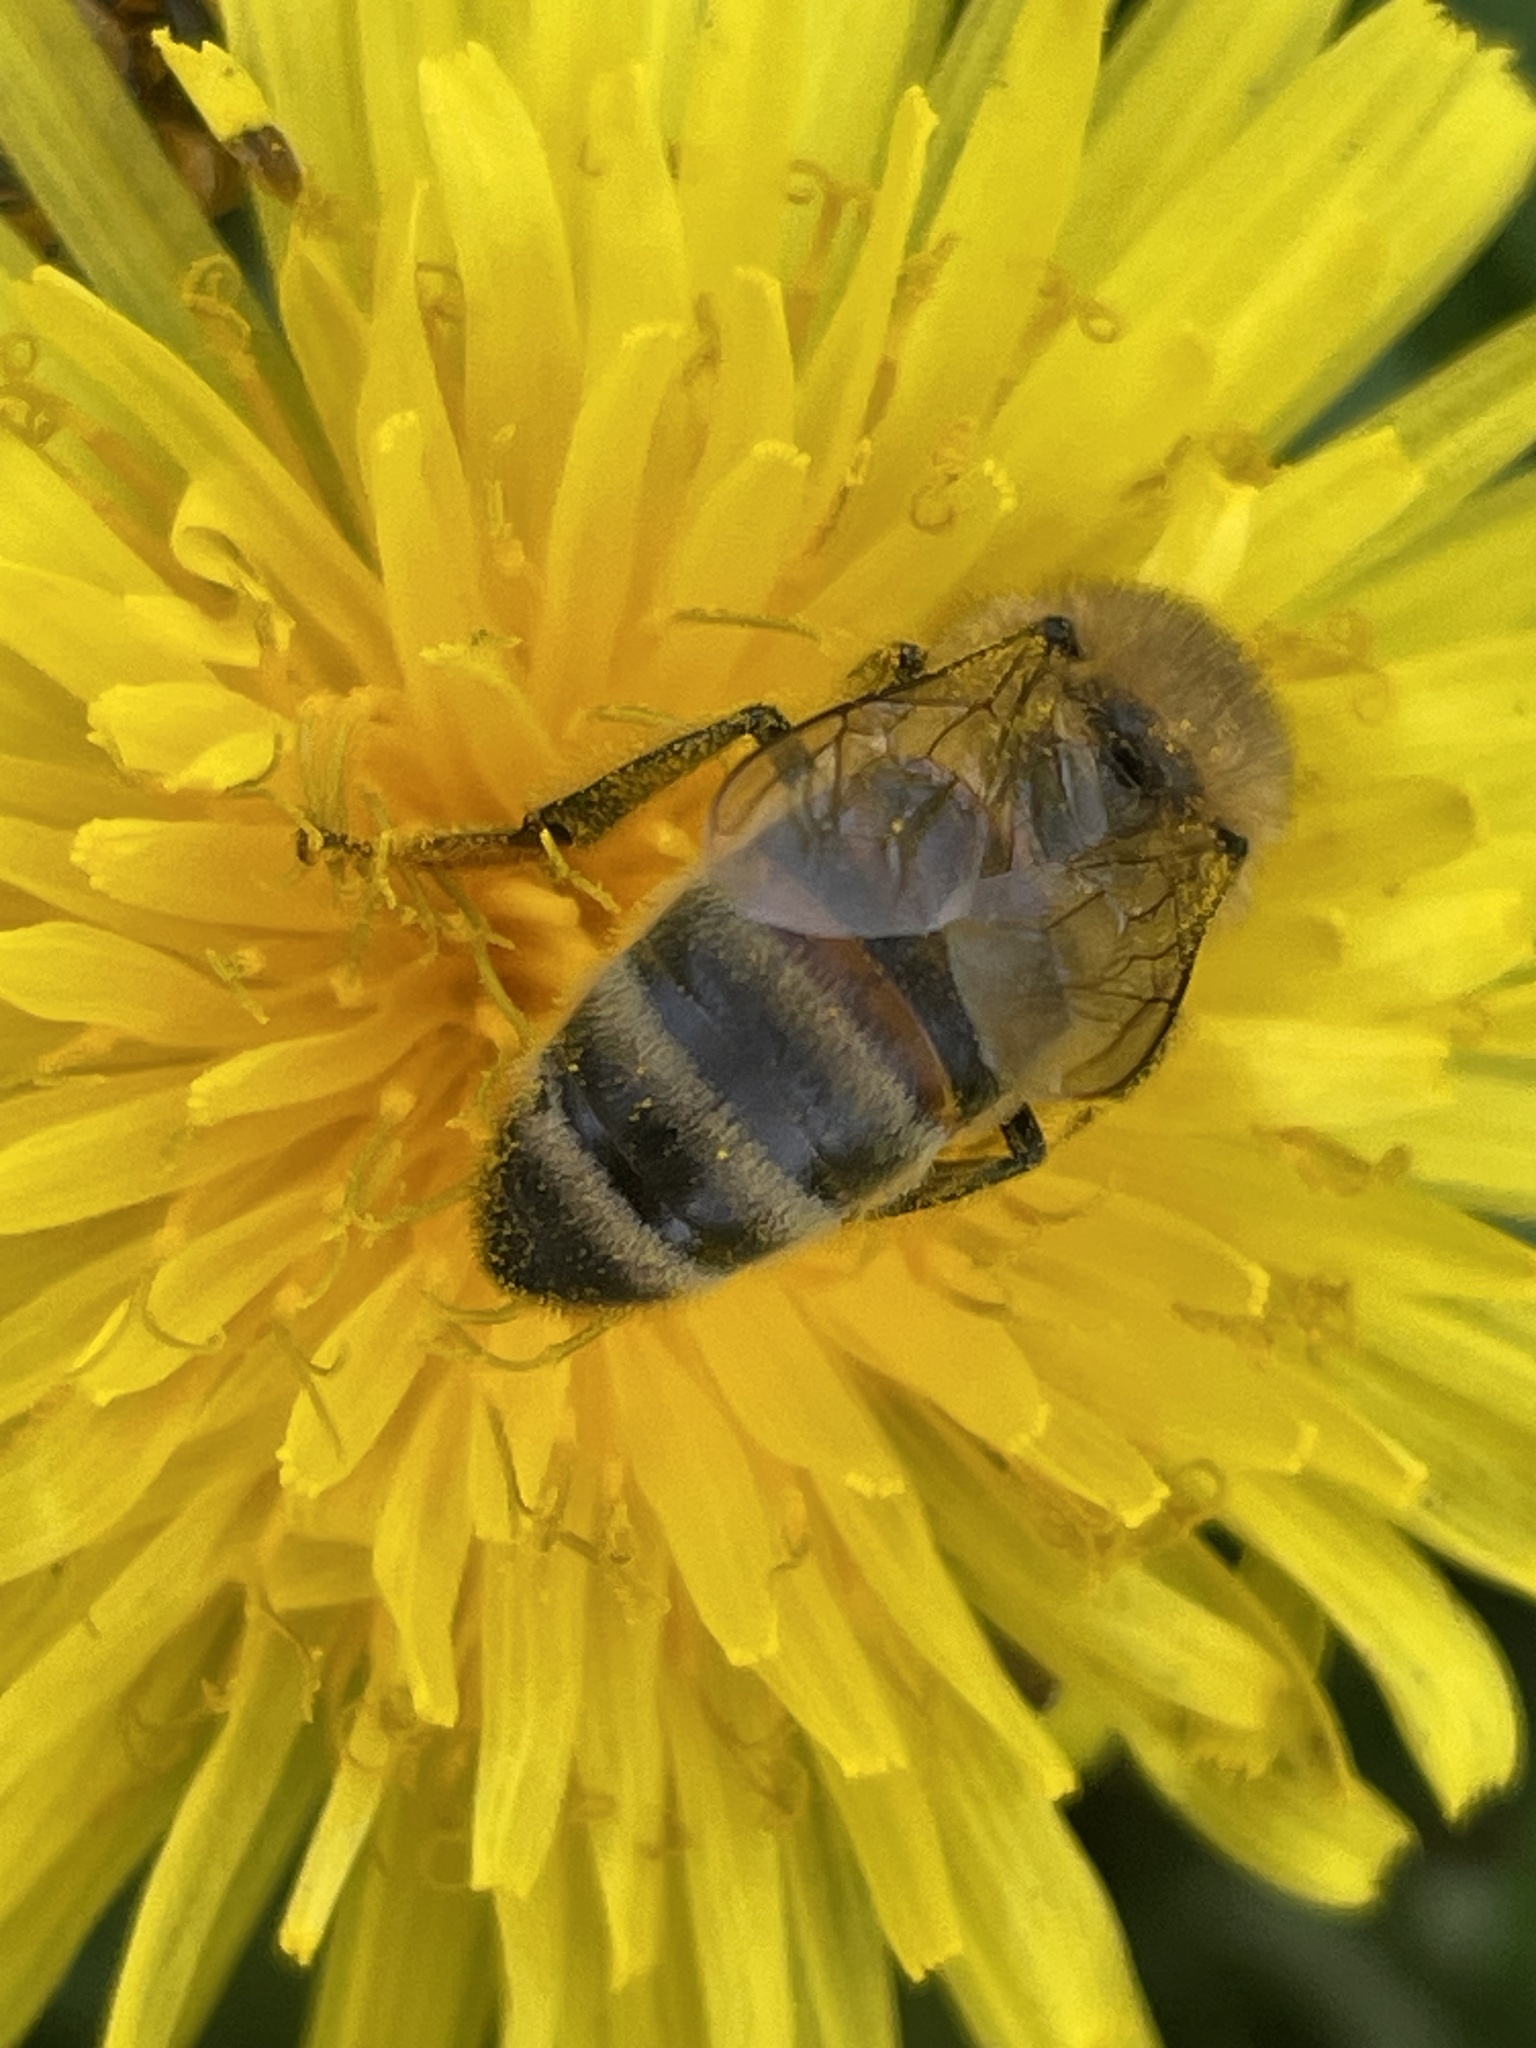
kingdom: Animalia
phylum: Arthropoda
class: Insecta
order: Hymenoptera
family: Apidae
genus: Apis
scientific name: Apis mellifera
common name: Honey bee
